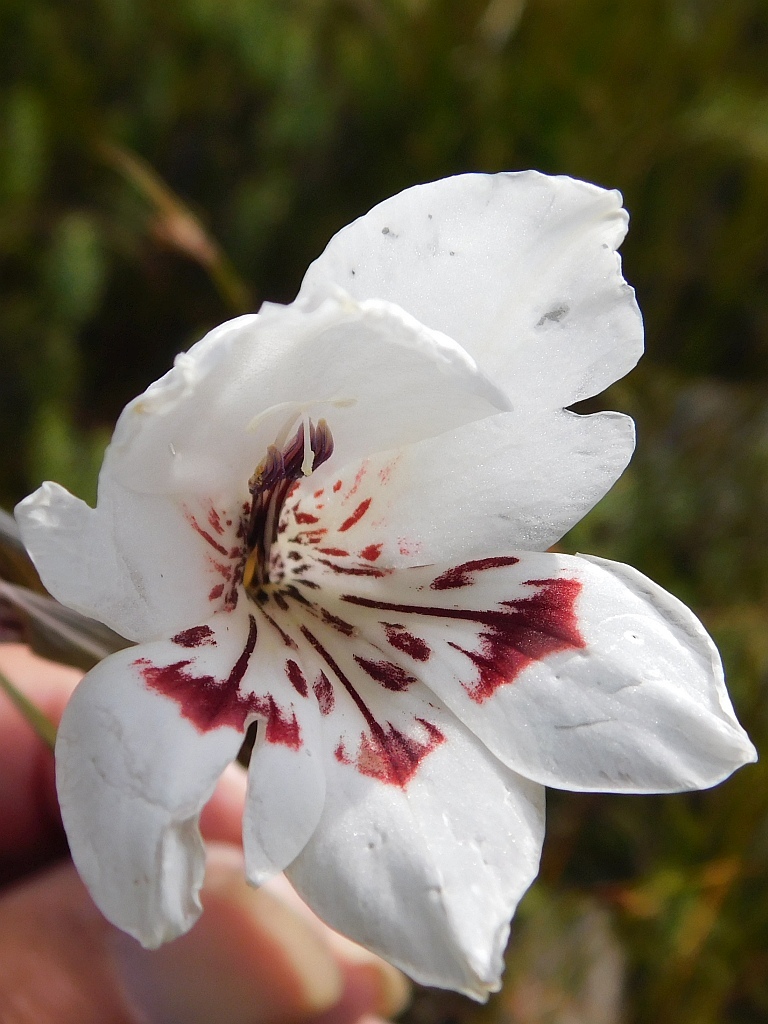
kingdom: Plantae
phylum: Tracheophyta
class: Liliopsida
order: Asparagales
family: Iridaceae
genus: Gladiolus
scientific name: Gladiolus debilis
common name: Painted-lady
